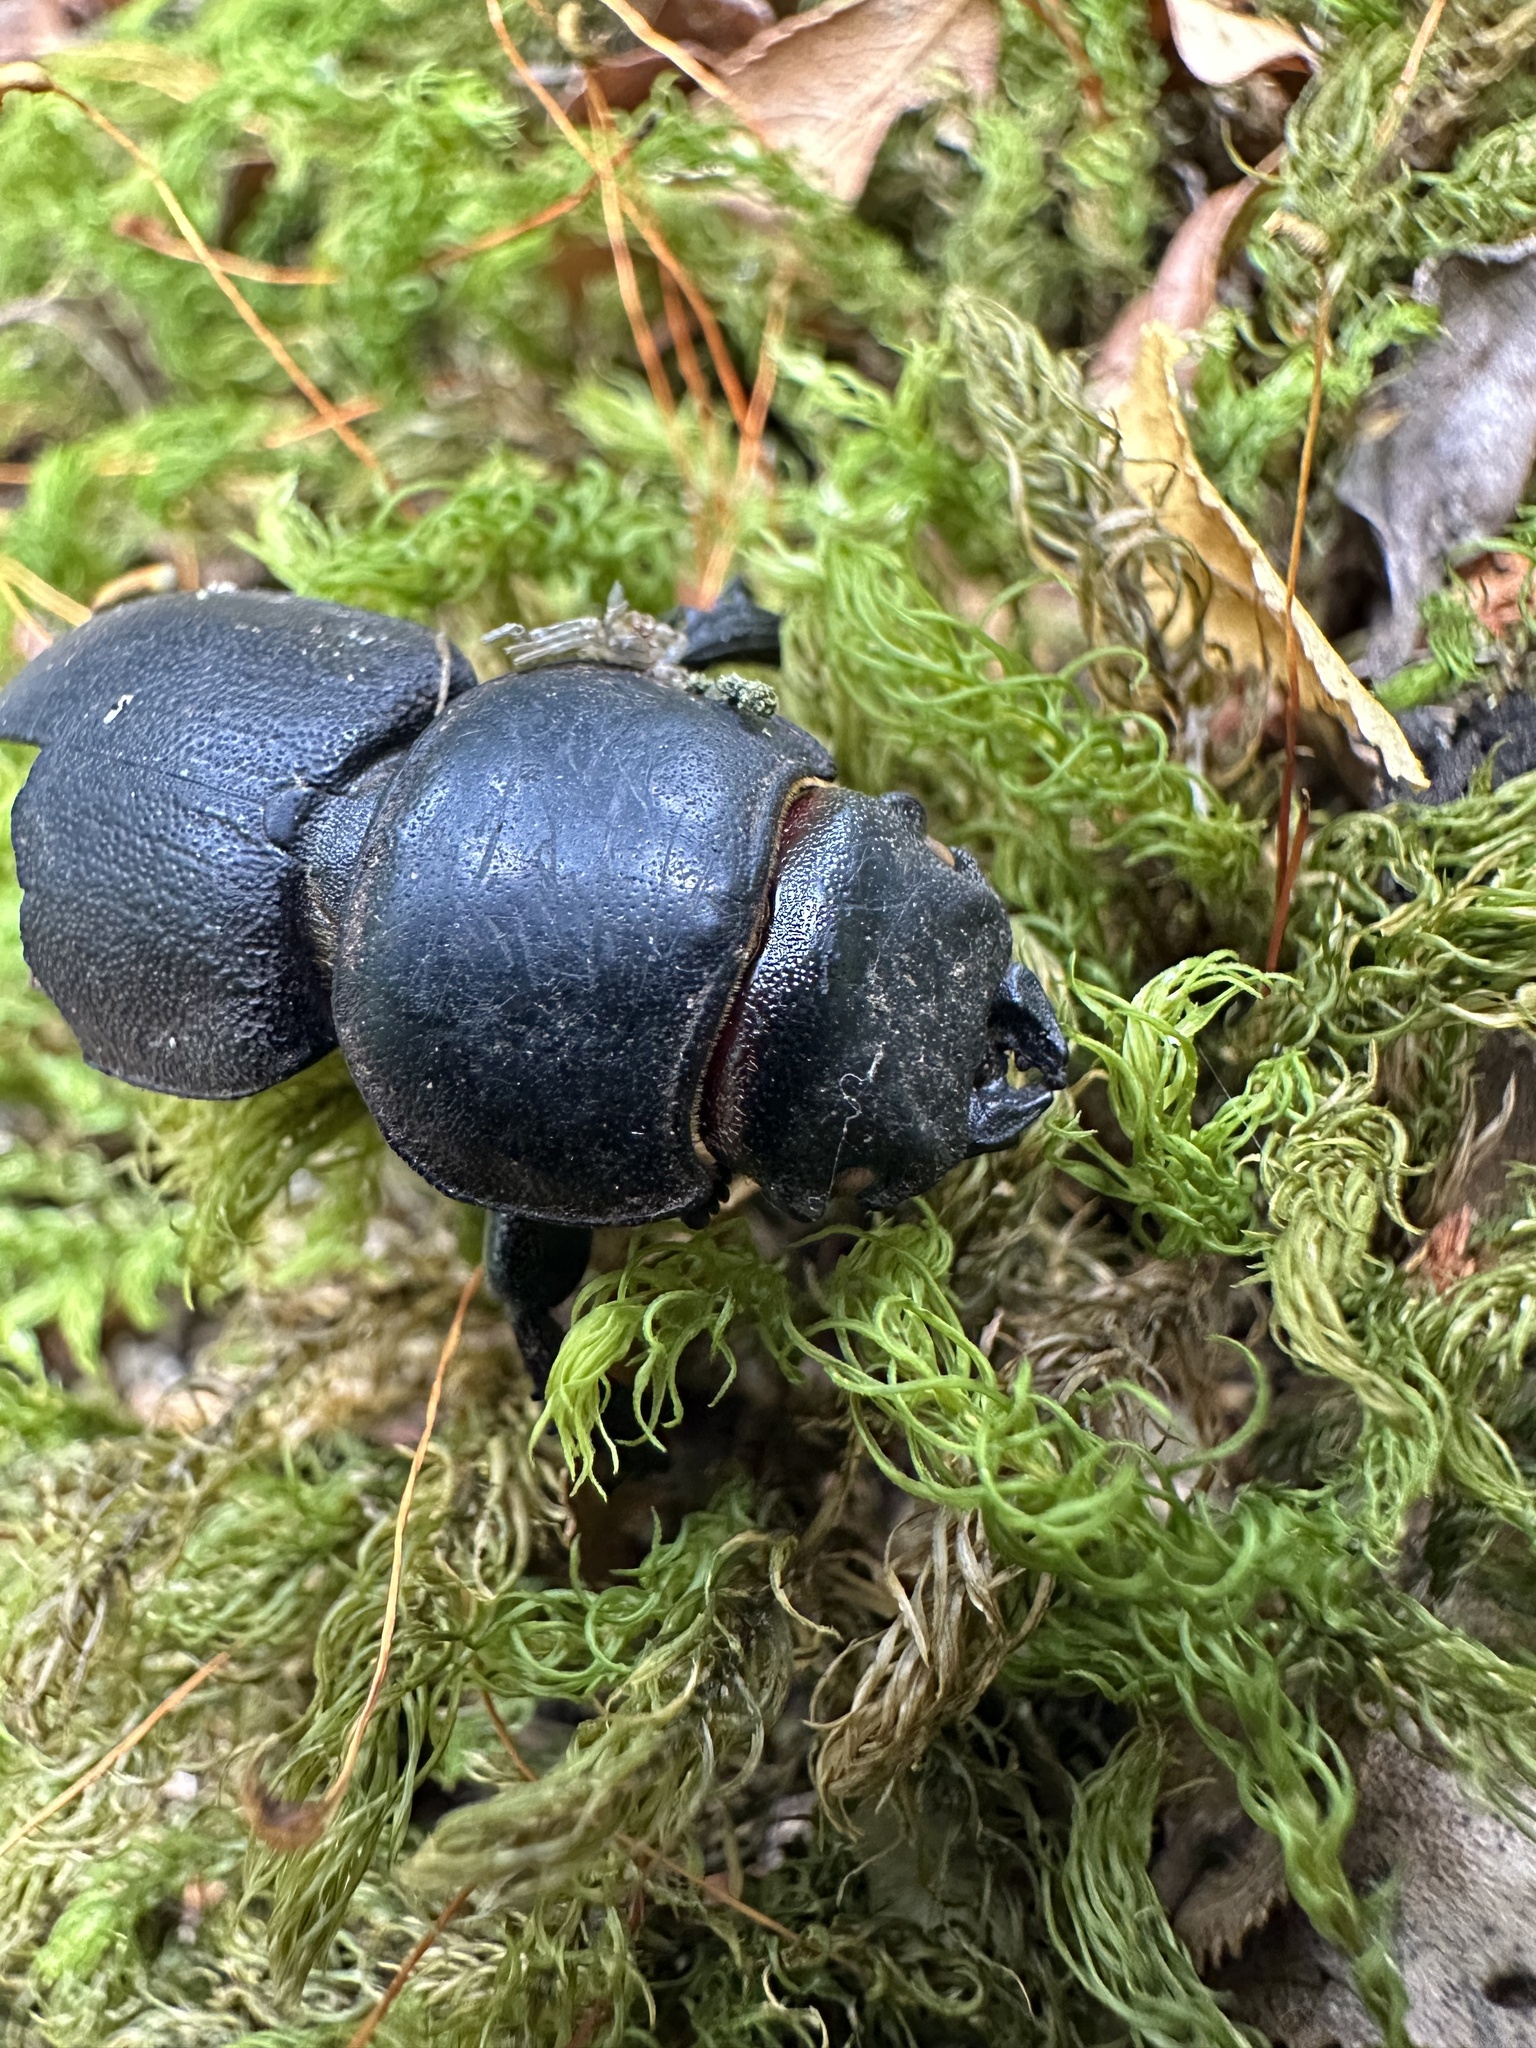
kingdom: Animalia
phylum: Arthropoda
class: Insecta
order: Coleoptera
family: Lucanidae
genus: Apterodorcus
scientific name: Apterodorcus bacchus
